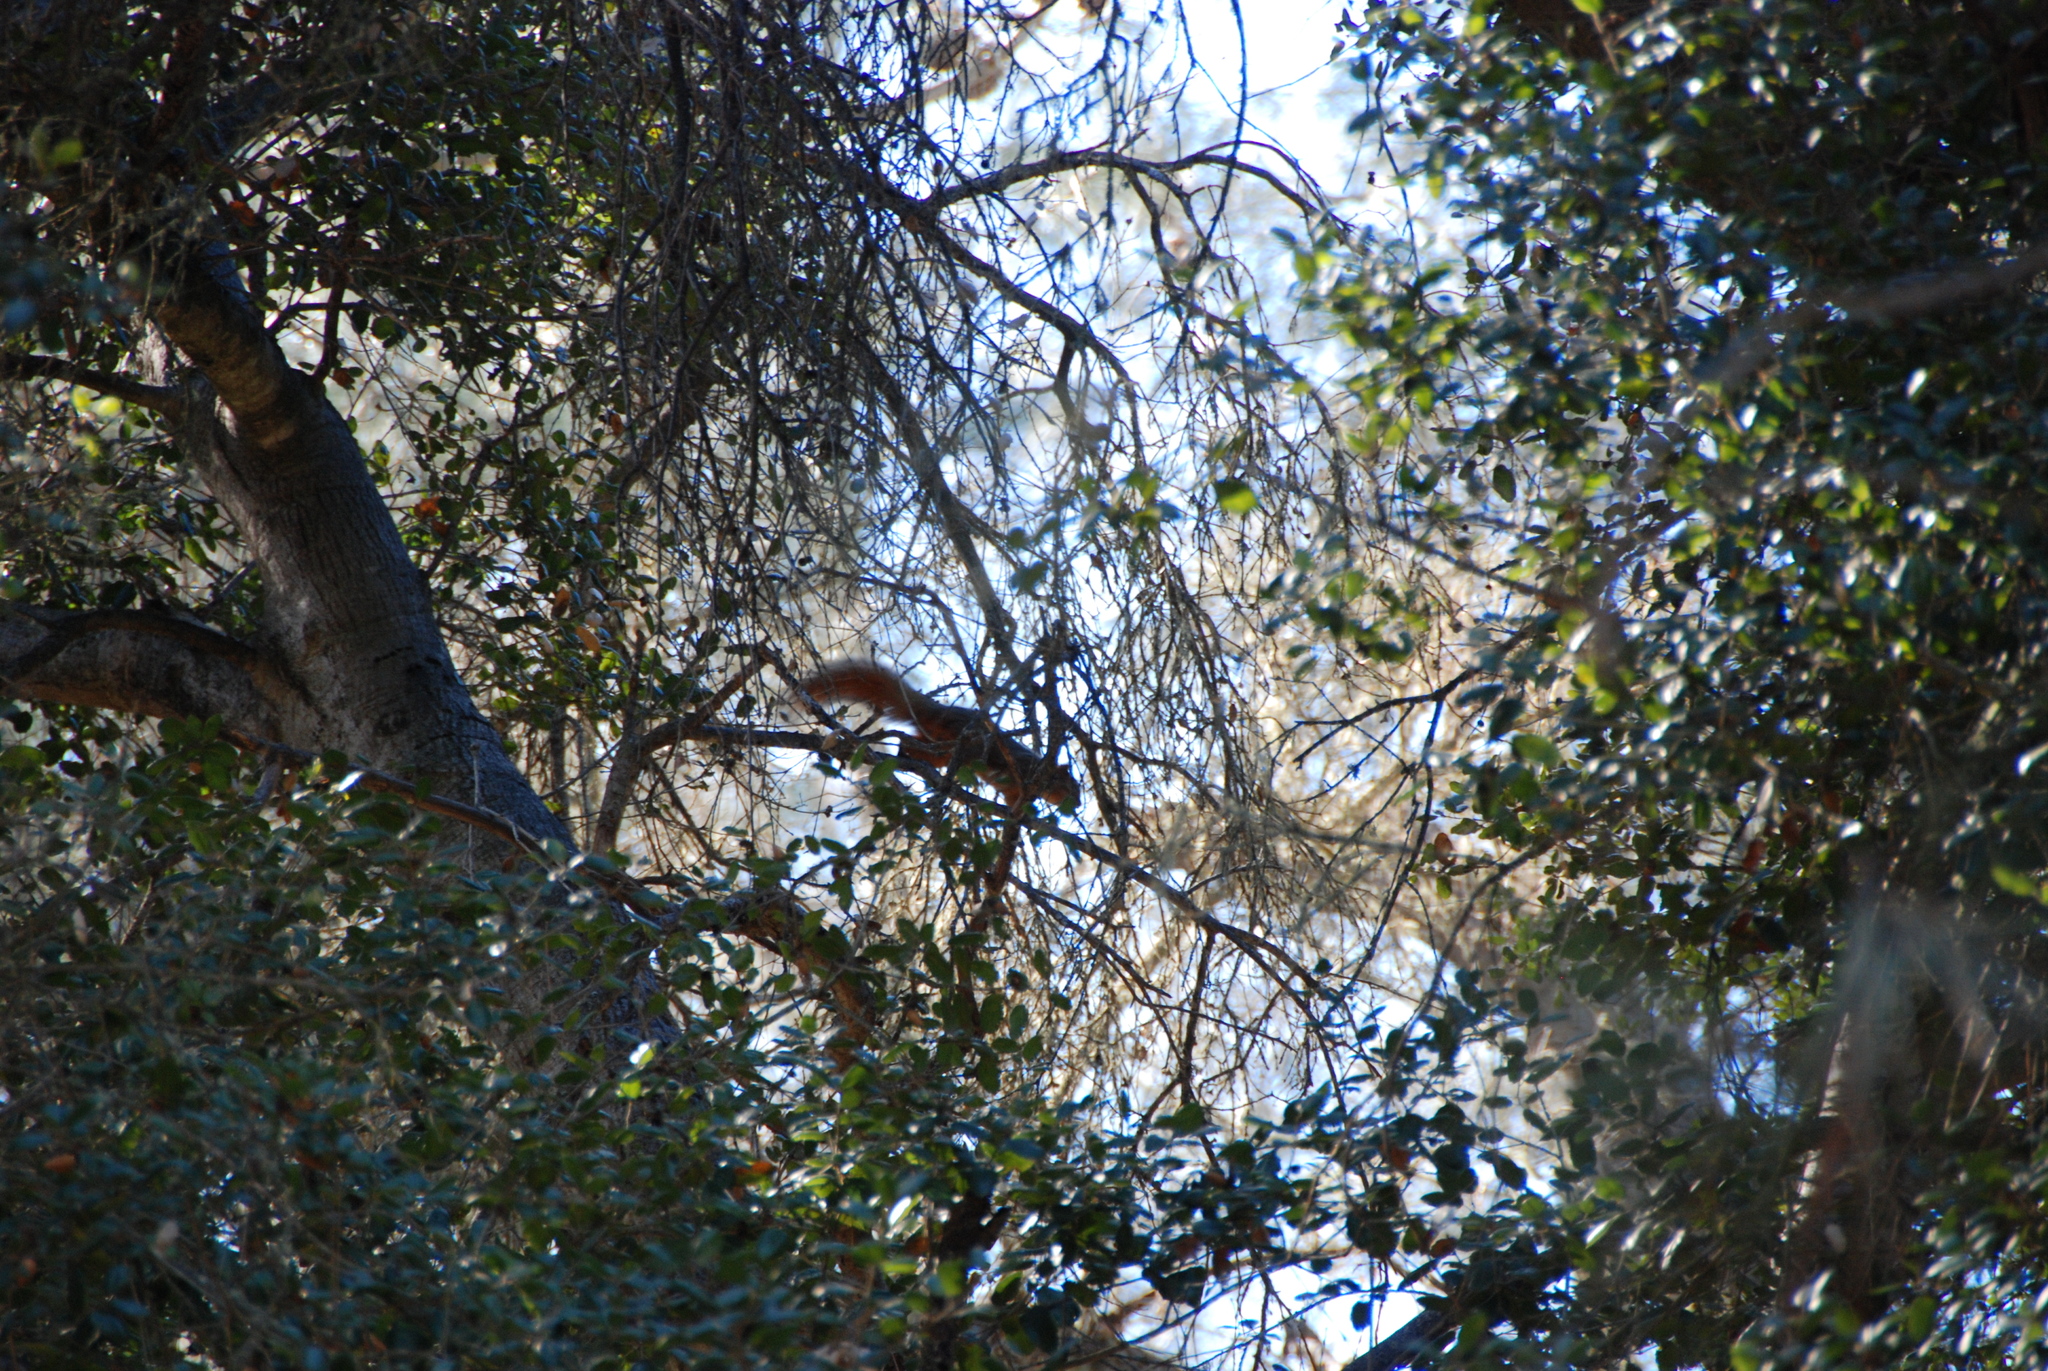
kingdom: Animalia
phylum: Chordata
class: Mammalia
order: Rodentia
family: Sciuridae
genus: Sciurus
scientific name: Sciurus niger
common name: Fox squirrel
